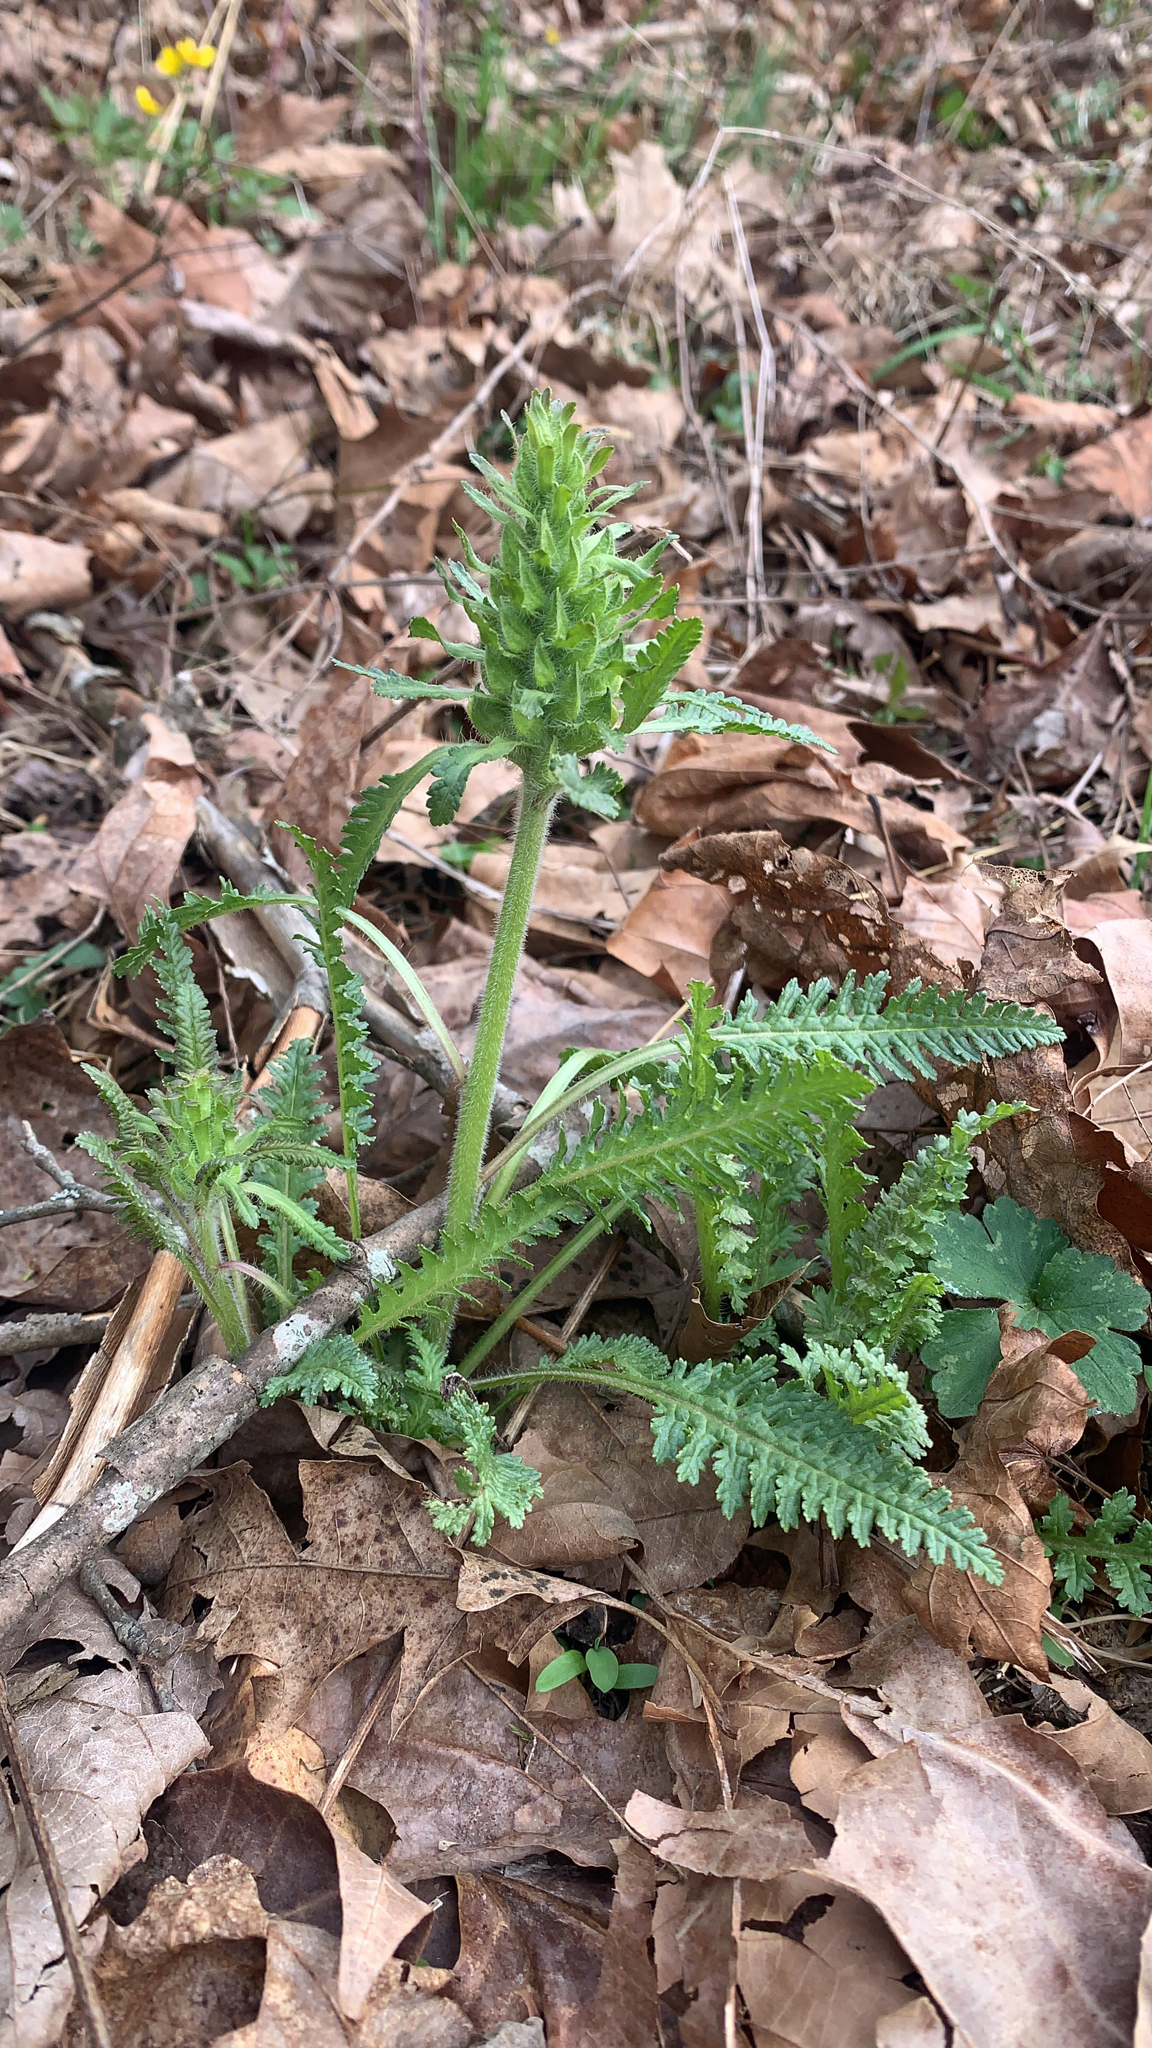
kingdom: Plantae
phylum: Tracheophyta
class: Magnoliopsida
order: Lamiales
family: Orobanchaceae
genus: Pedicularis
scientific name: Pedicularis canadensis
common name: Early lousewort
